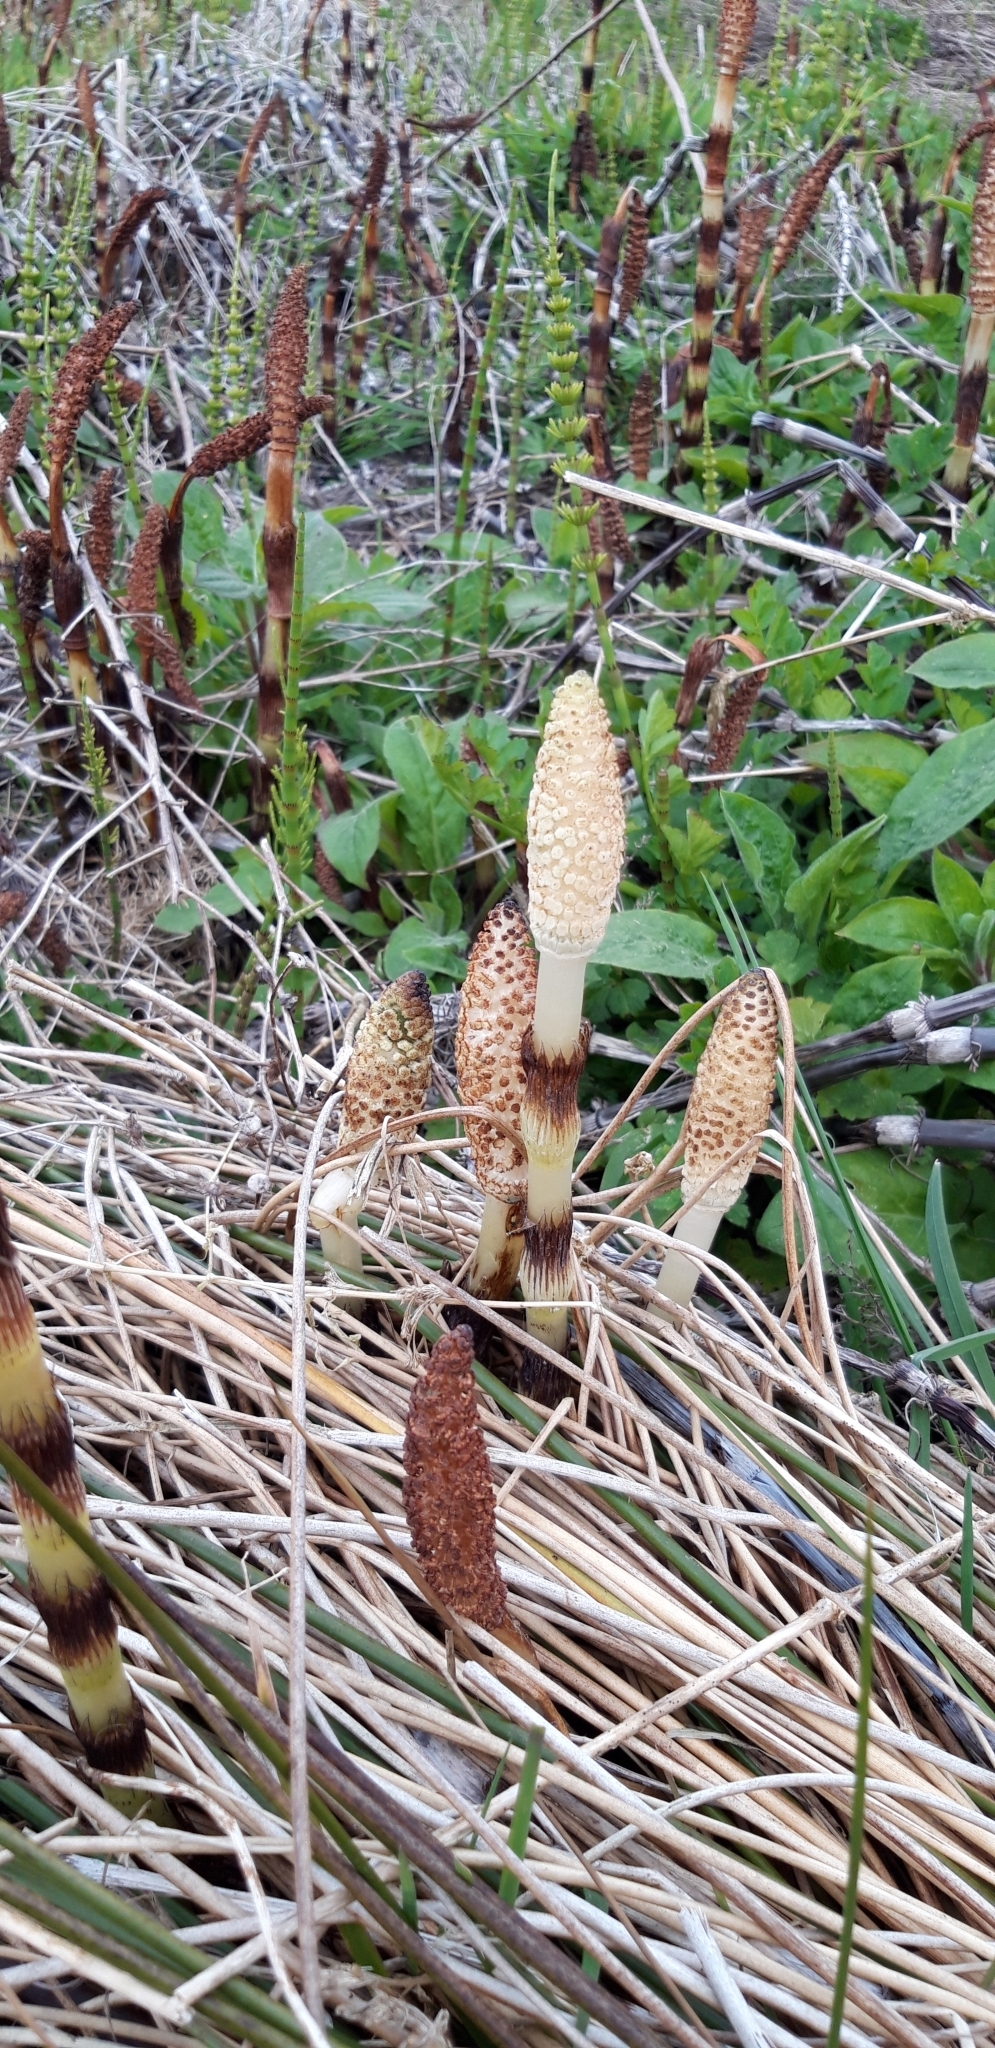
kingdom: Plantae
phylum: Tracheophyta
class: Polypodiopsida
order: Equisetales
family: Equisetaceae
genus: Equisetum
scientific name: Equisetum telmateia
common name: Great horsetail
